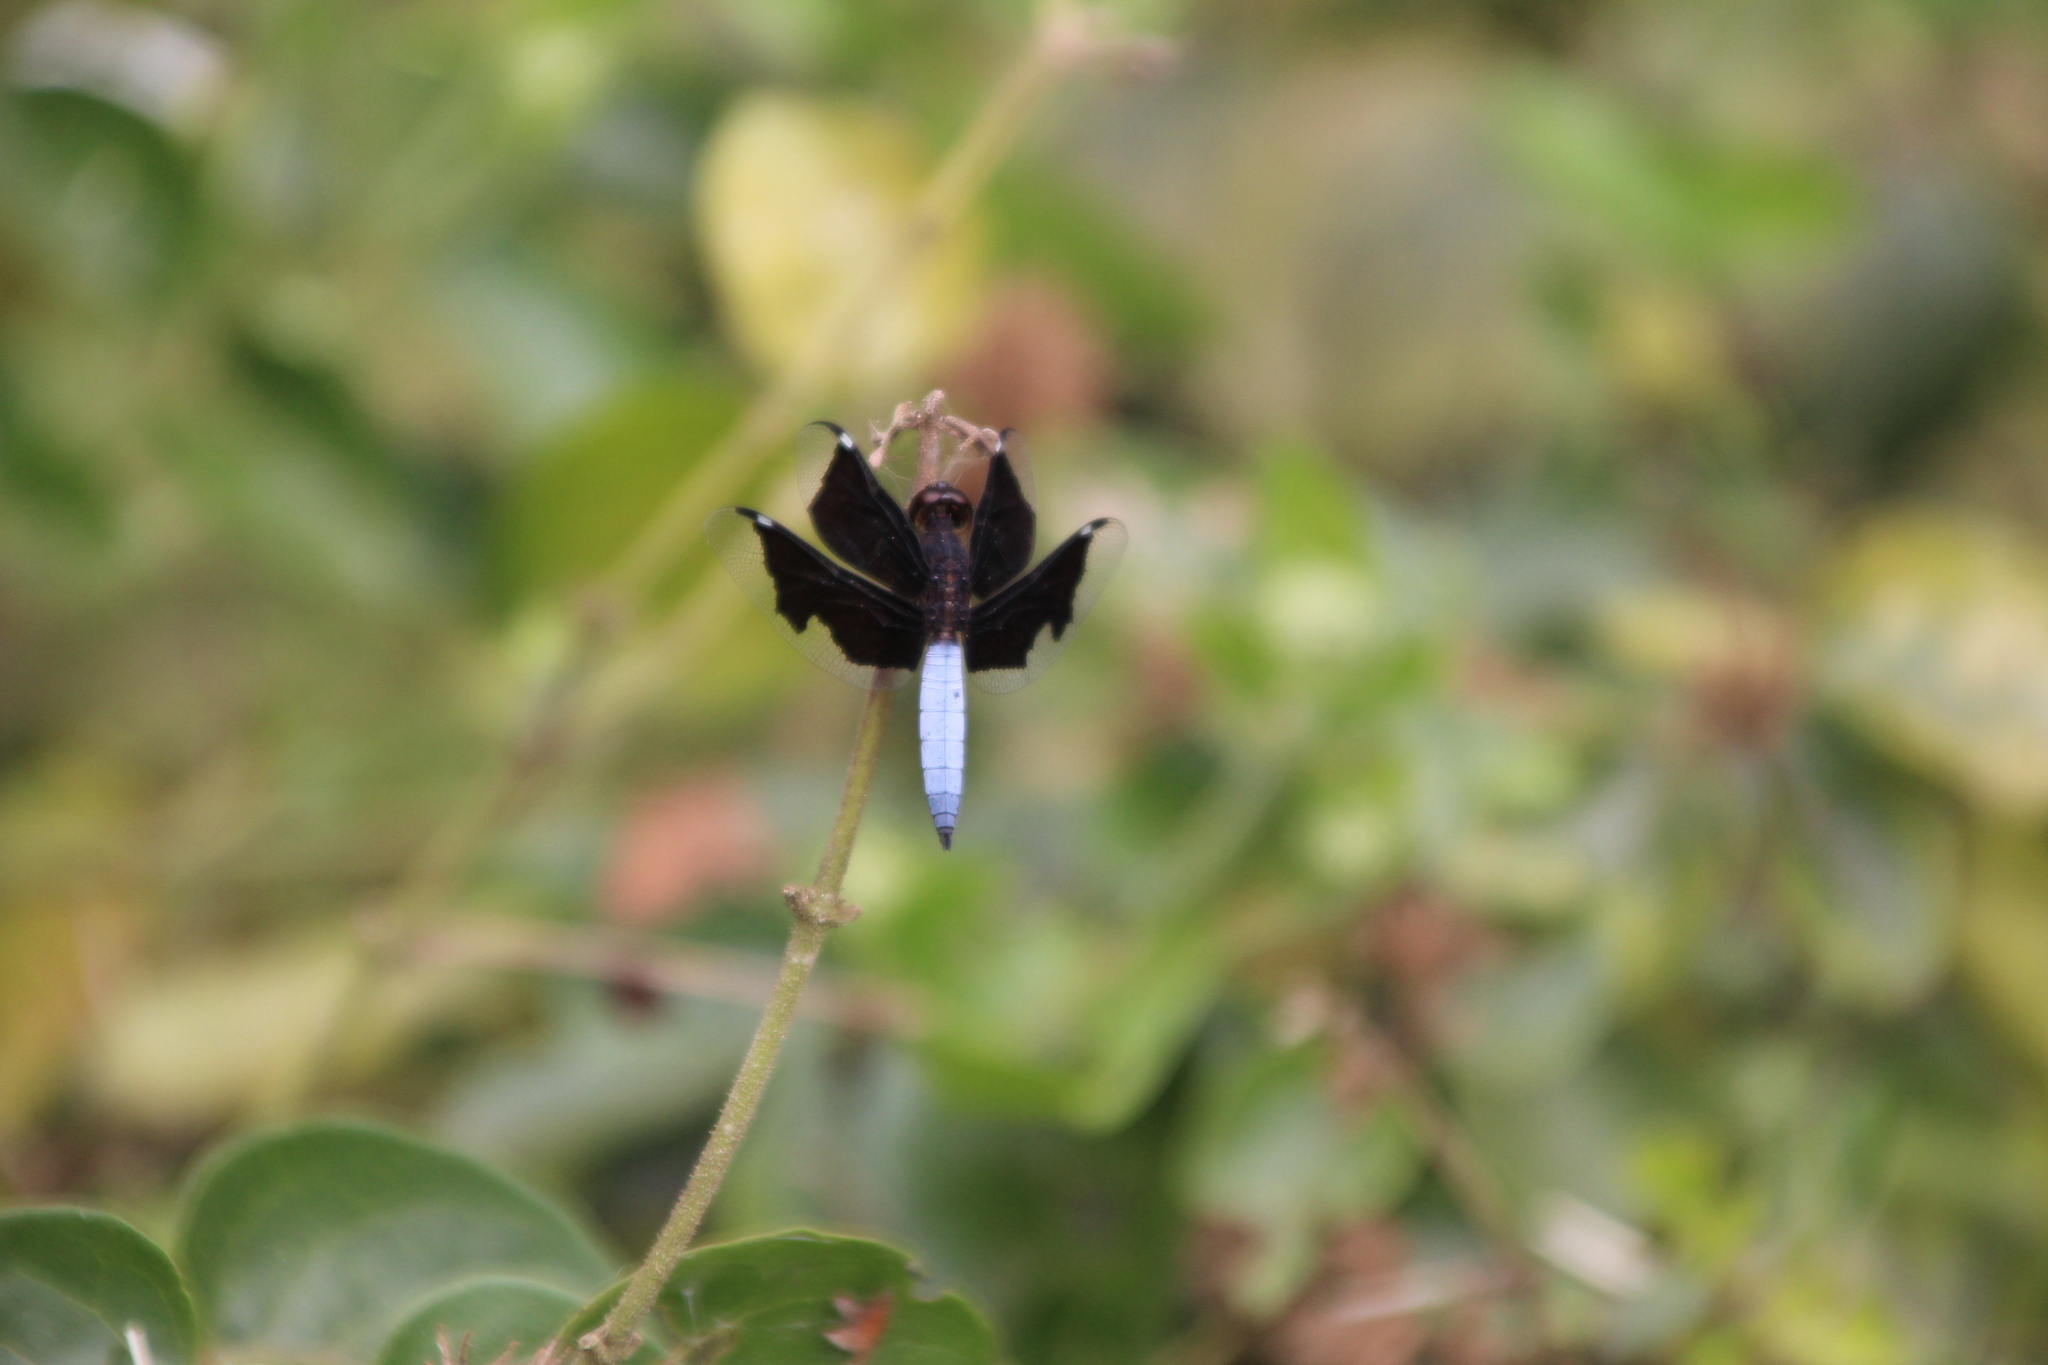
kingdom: Animalia
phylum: Arthropoda
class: Insecta
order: Odonata
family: Libellulidae
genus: Palpopleura
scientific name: Palpopleura lucia
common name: Lucia widow
